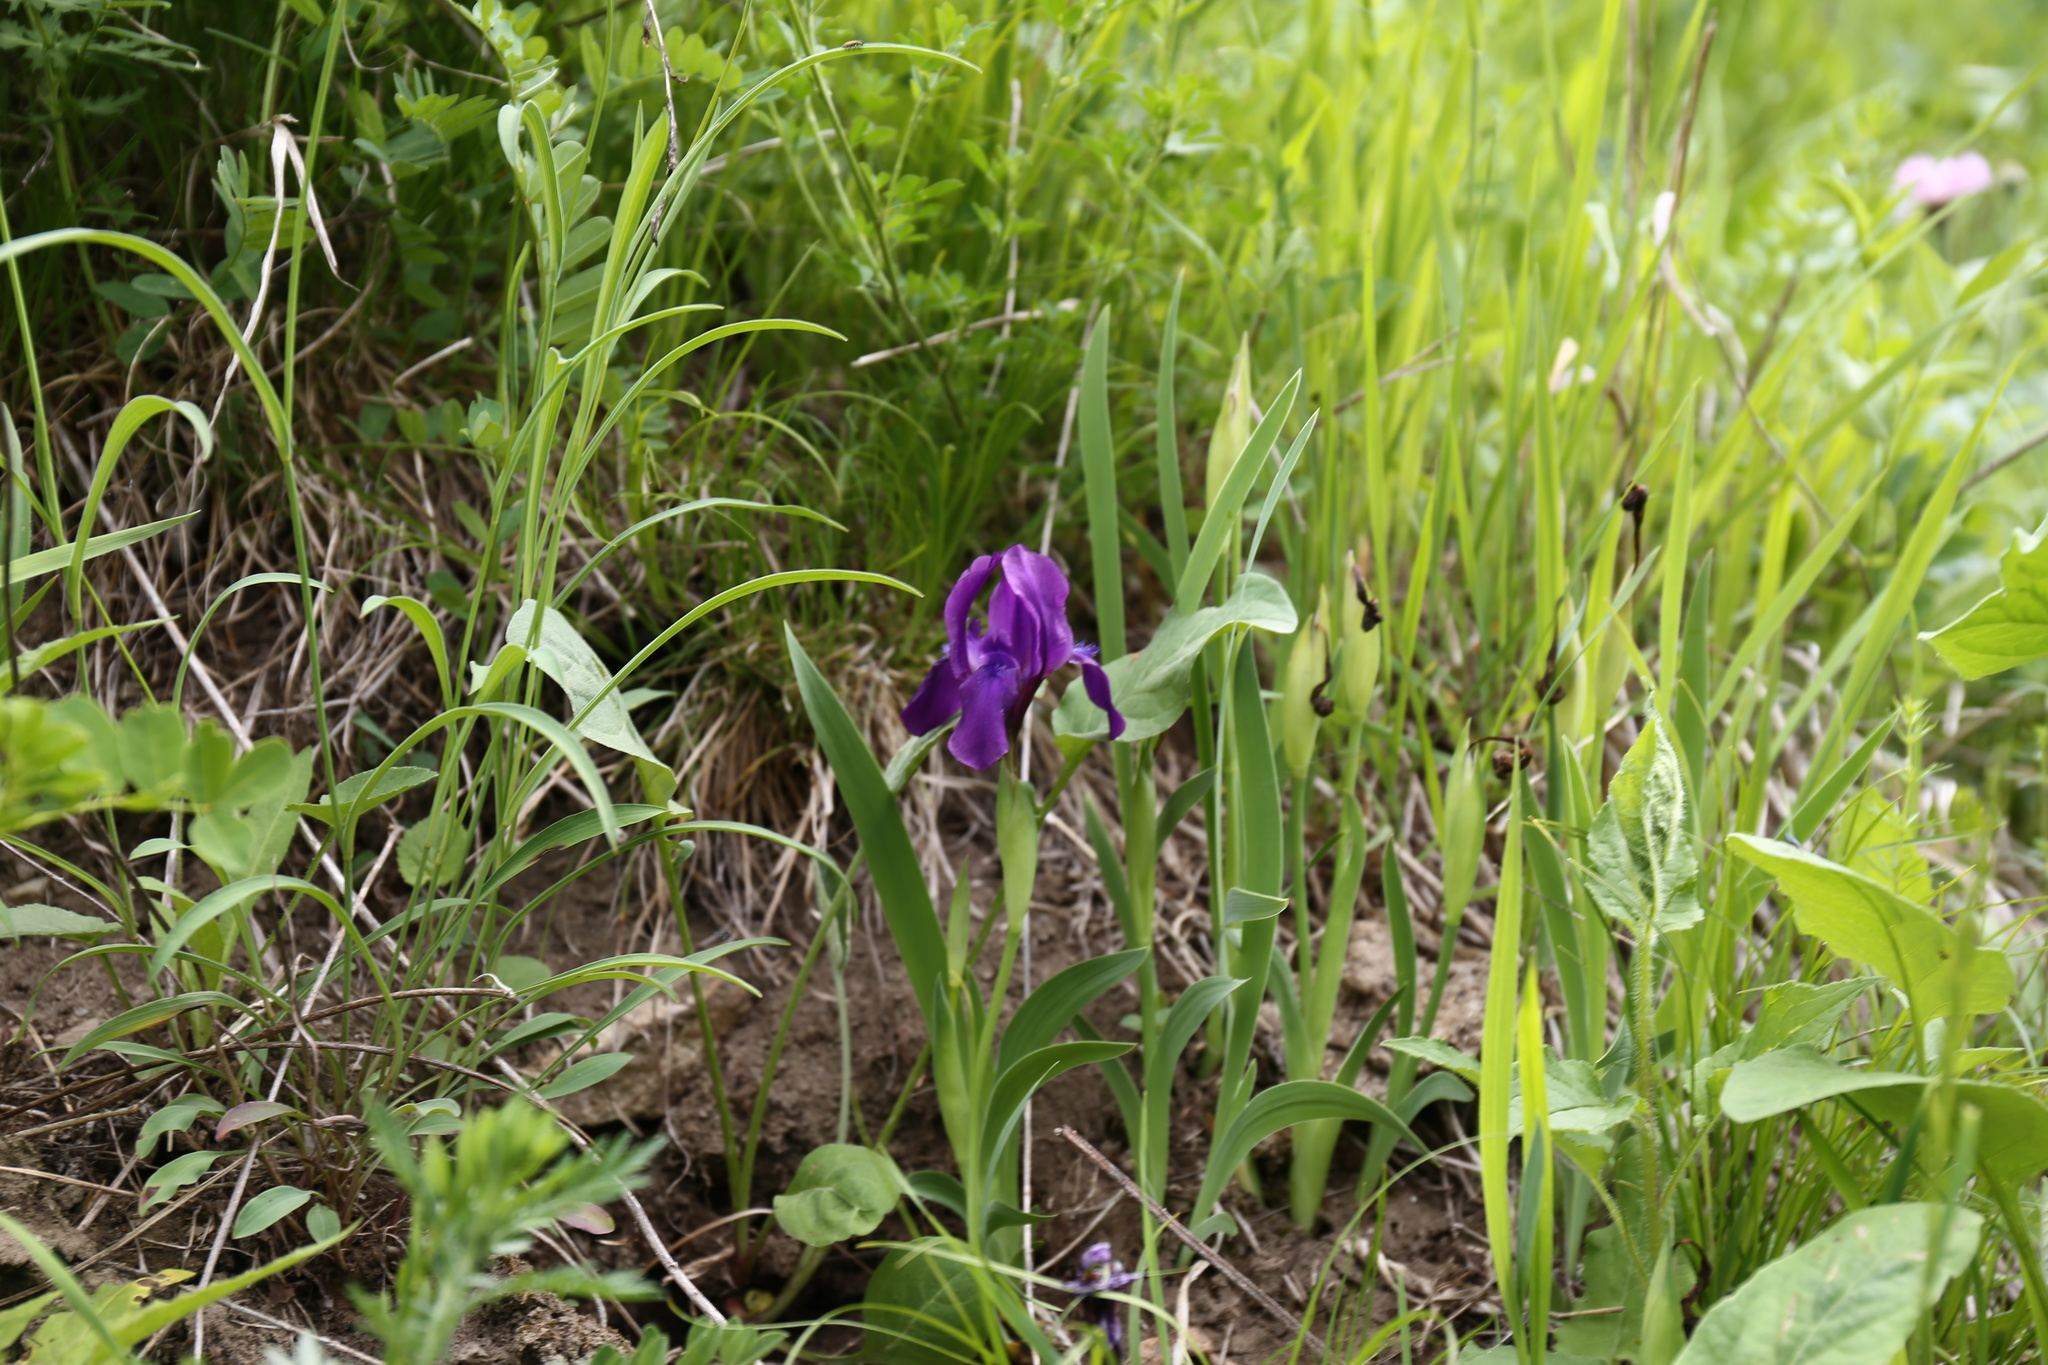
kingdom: Plantae
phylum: Tracheophyta
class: Liliopsida
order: Asparagales
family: Iridaceae
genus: Iris
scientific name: Iris furcata
